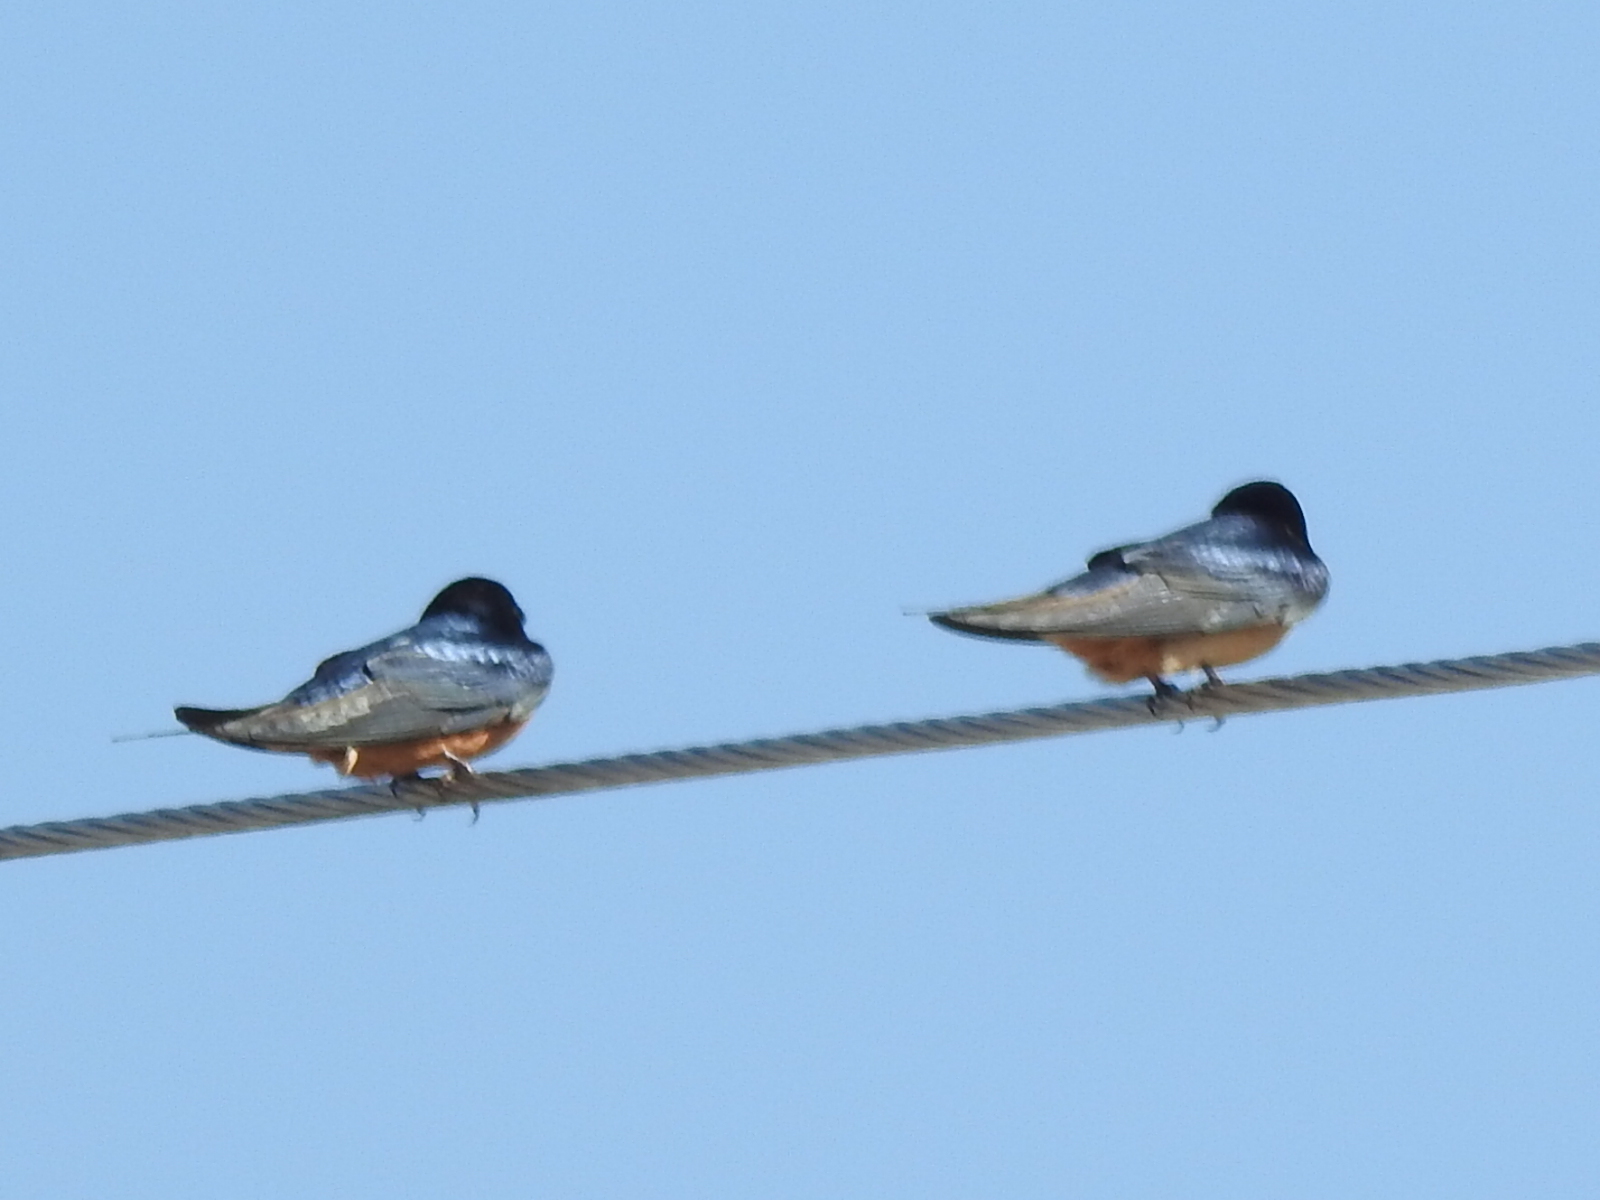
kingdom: Animalia
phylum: Chordata
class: Aves
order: Passeriformes
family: Hirundinidae
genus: Hirundo
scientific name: Hirundo rustica
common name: Barn swallow
